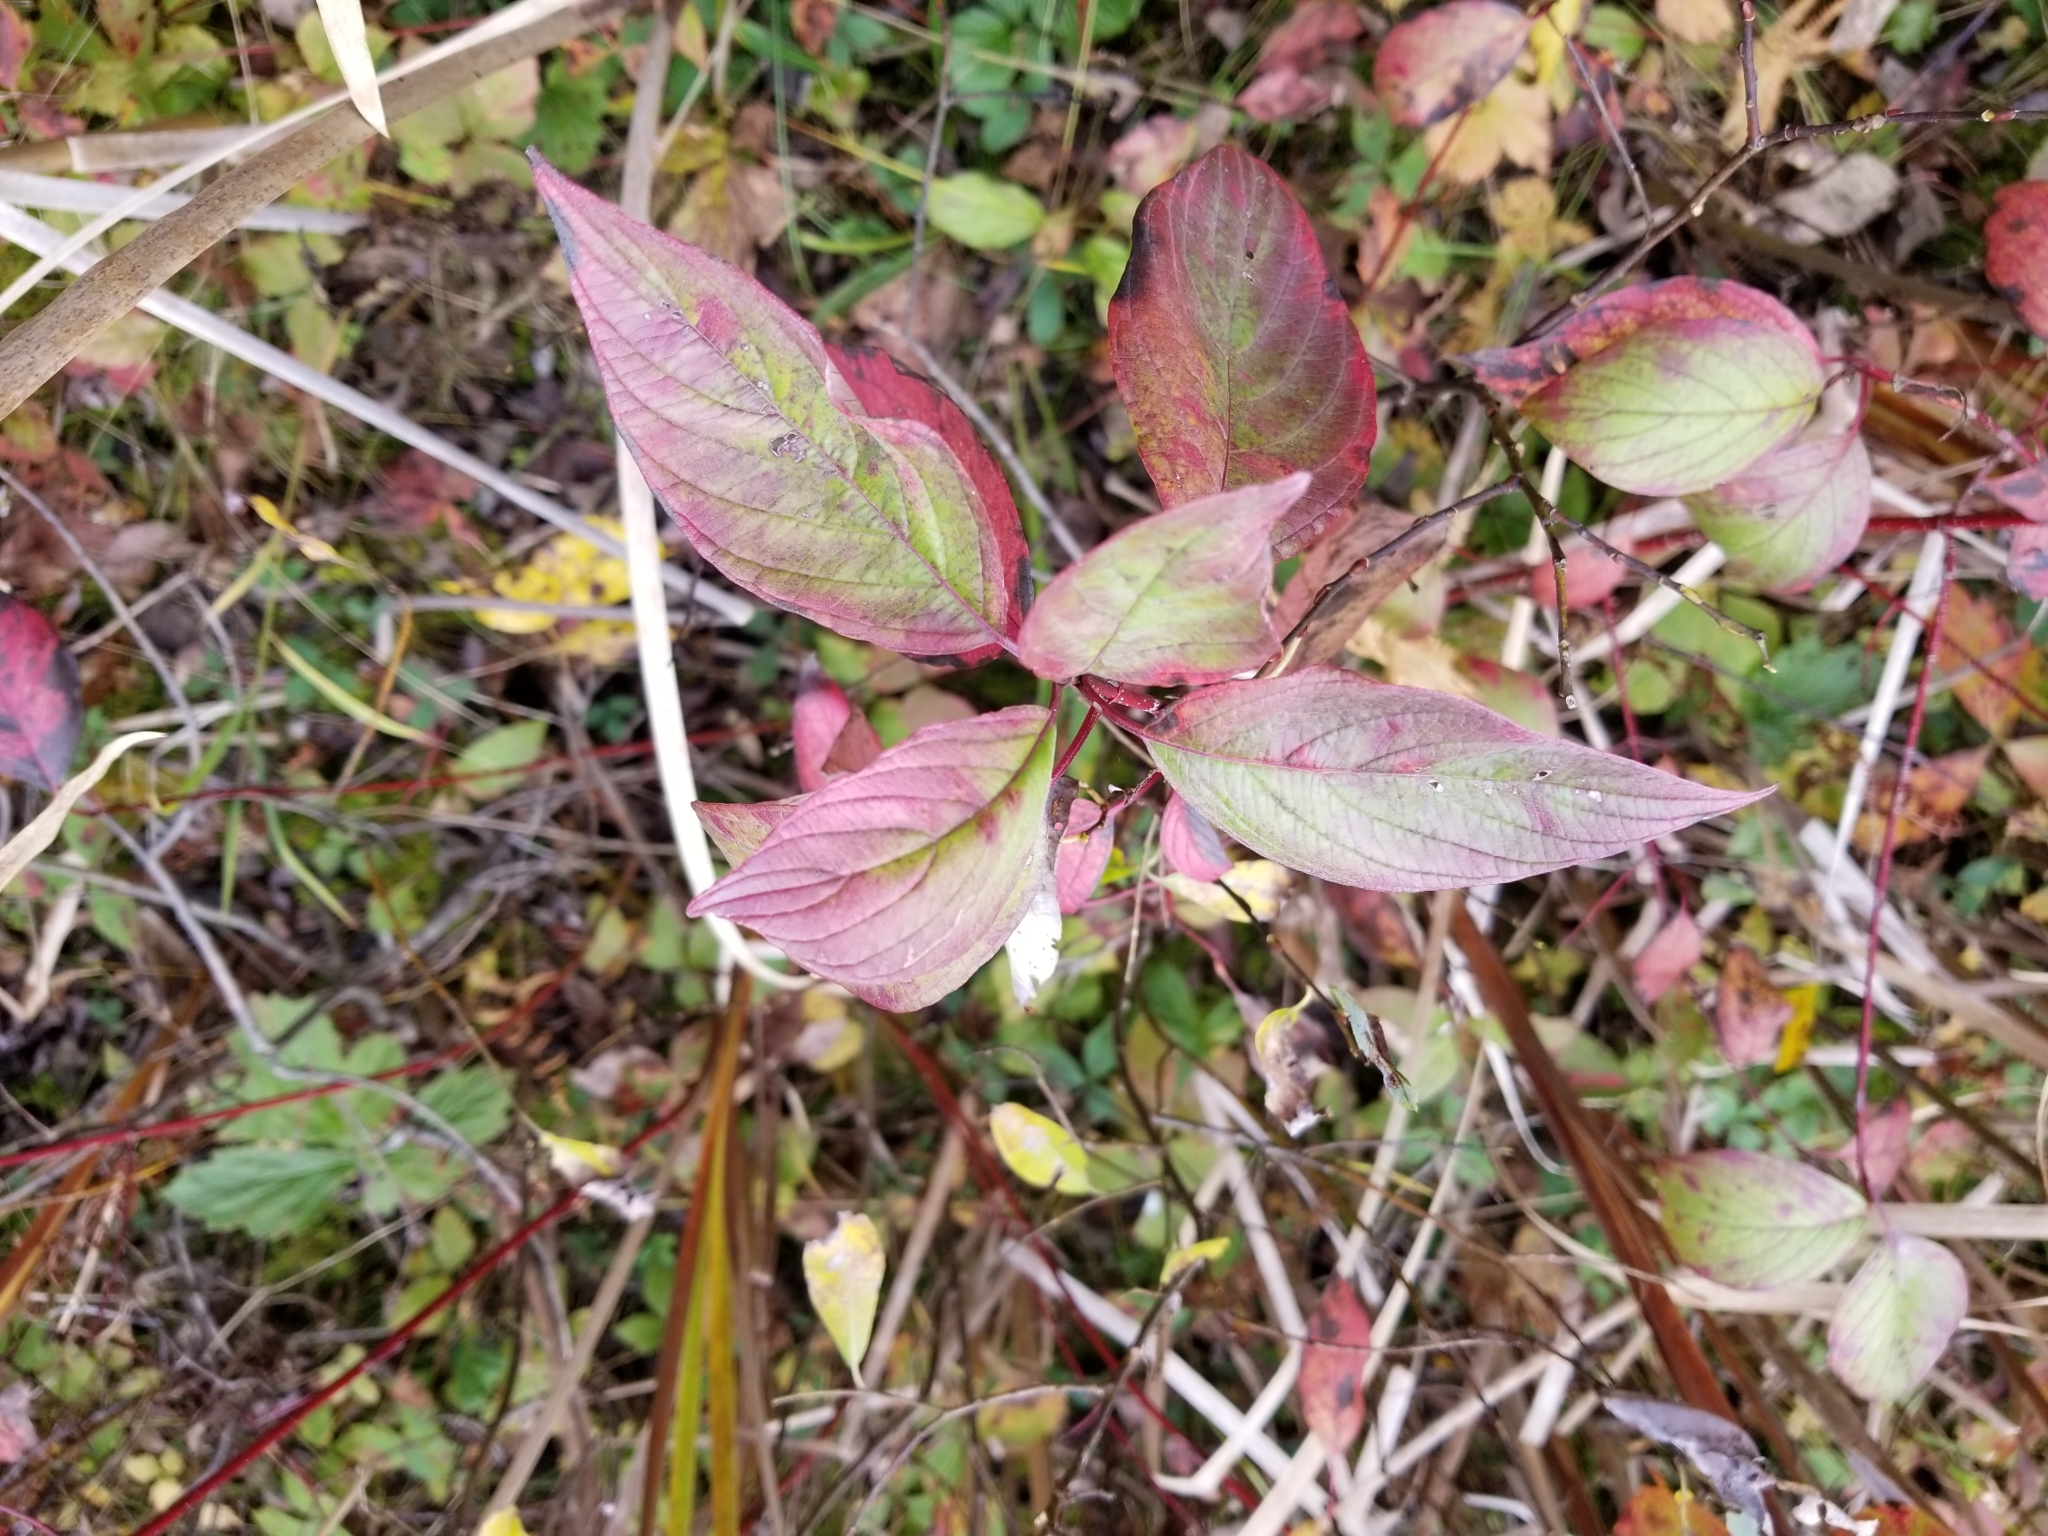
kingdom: Plantae
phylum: Tracheophyta
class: Magnoliopsida
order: Cornales
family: Cornaceae
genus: Cornus
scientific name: Cornus sericea
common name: Red-osier dogwood
